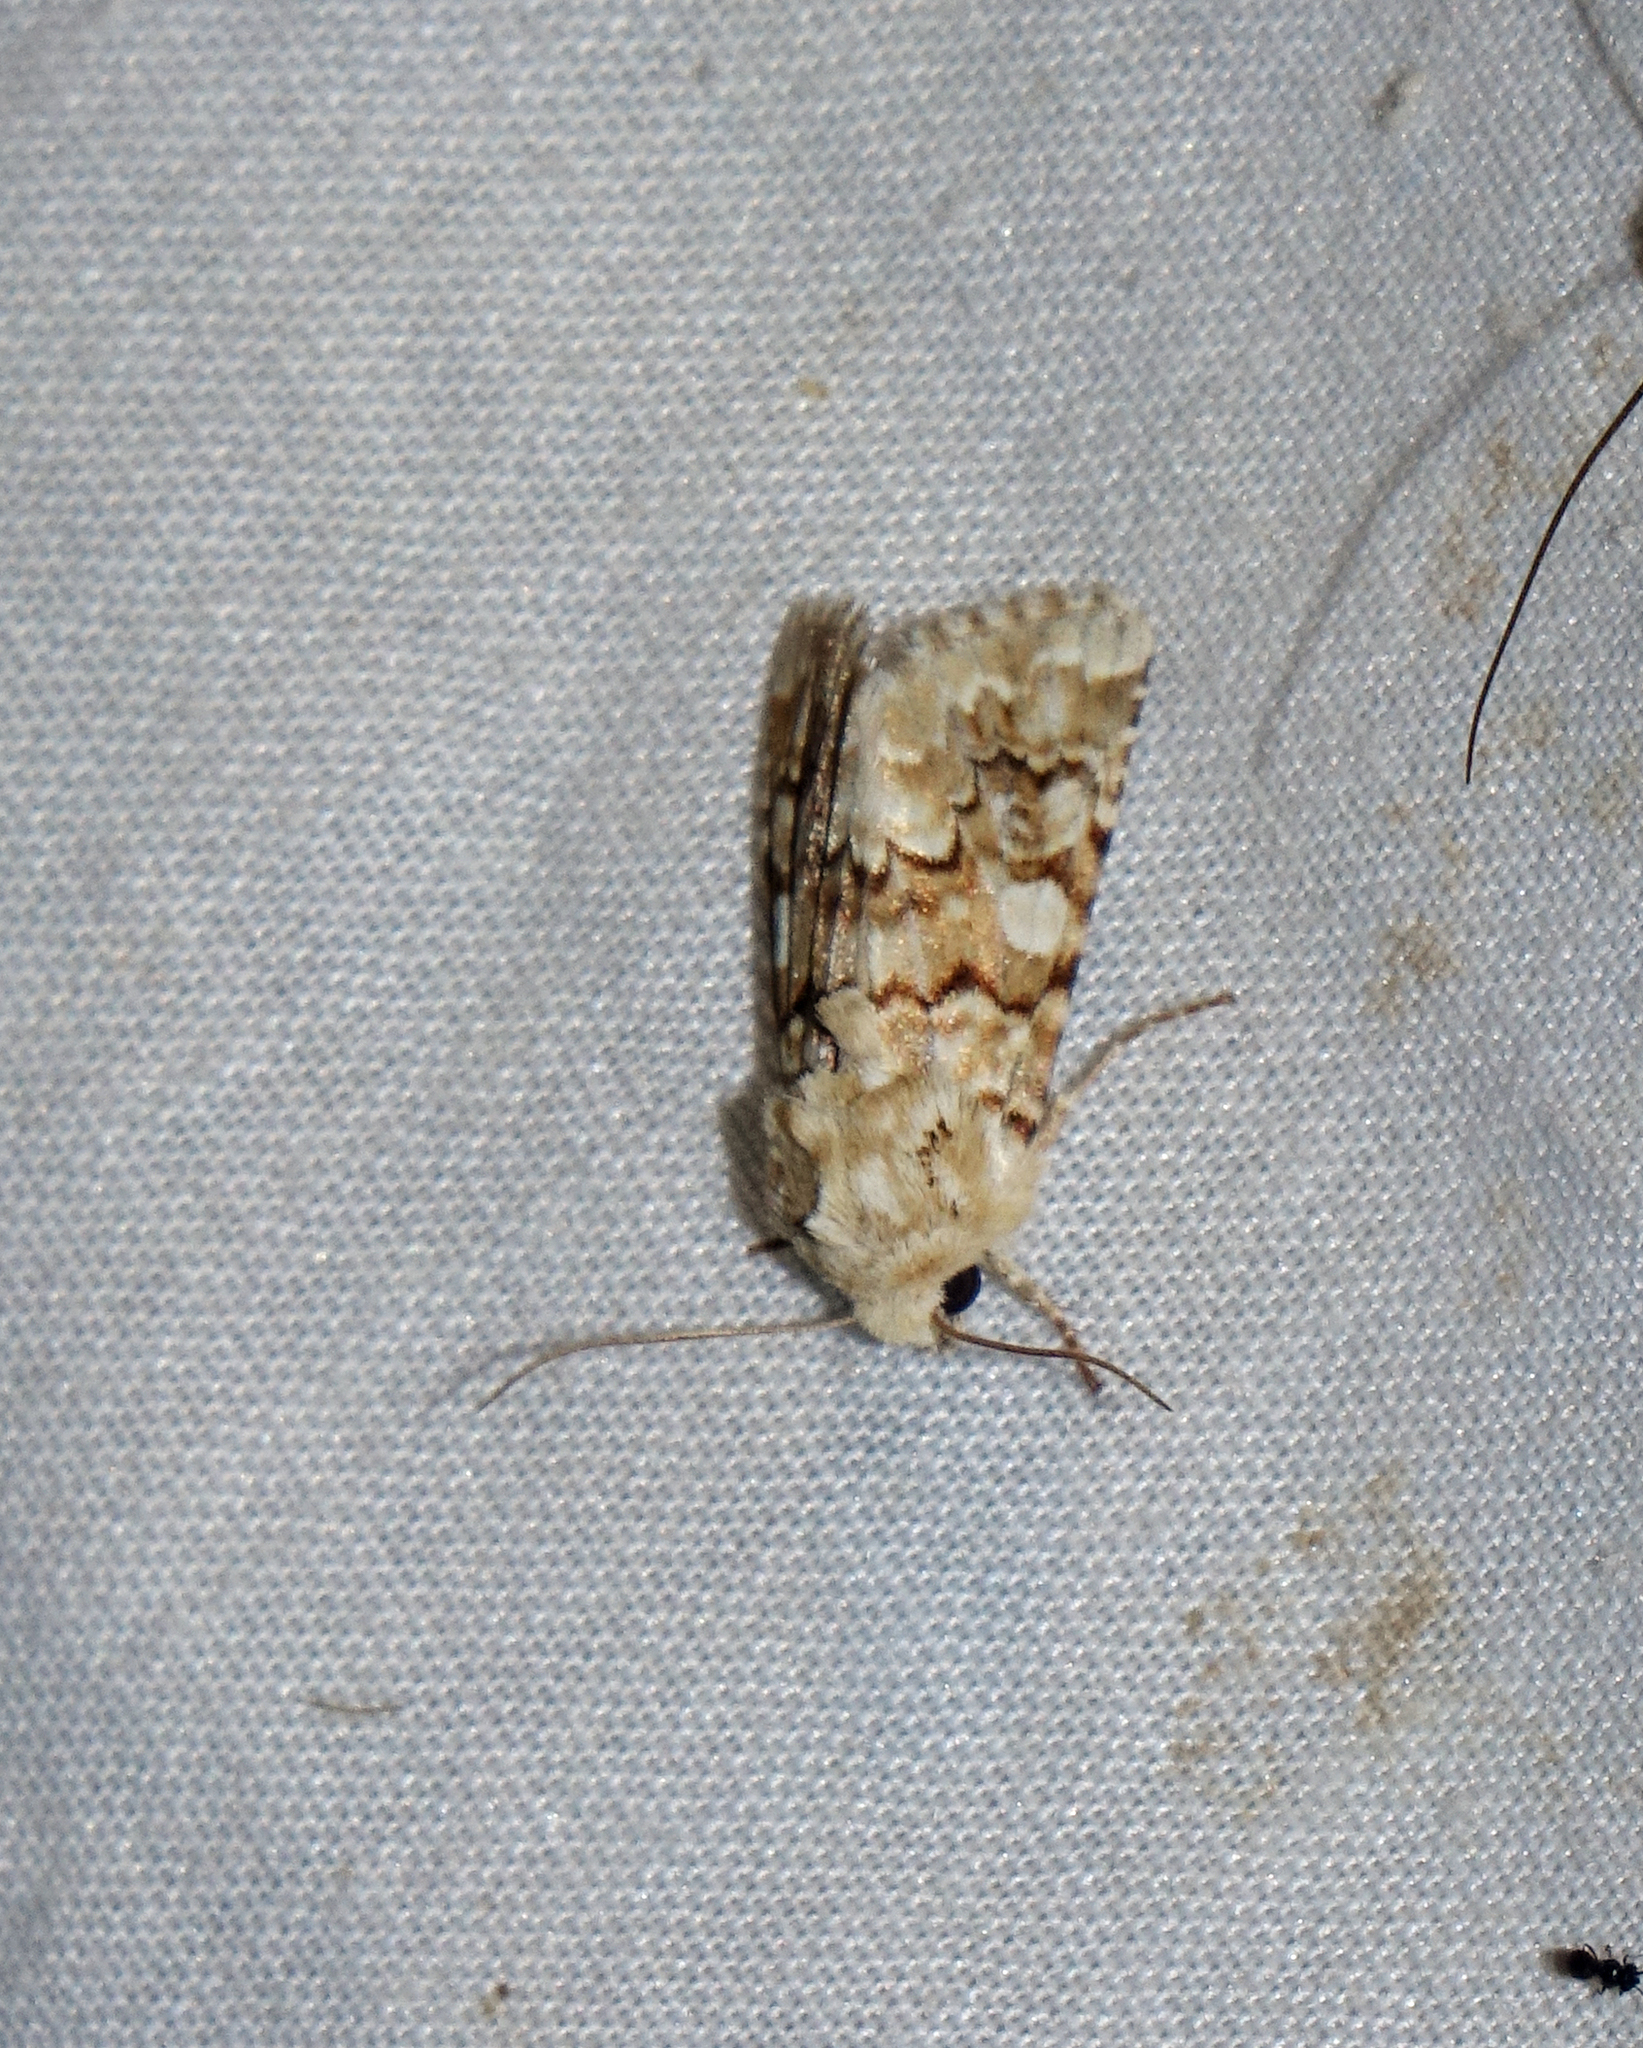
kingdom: Animalia
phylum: Arthropoda
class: Insecta
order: Lepidoptera
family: Noctuidae
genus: Hadena
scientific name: Hadena irregularis
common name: Vipers bugloss
